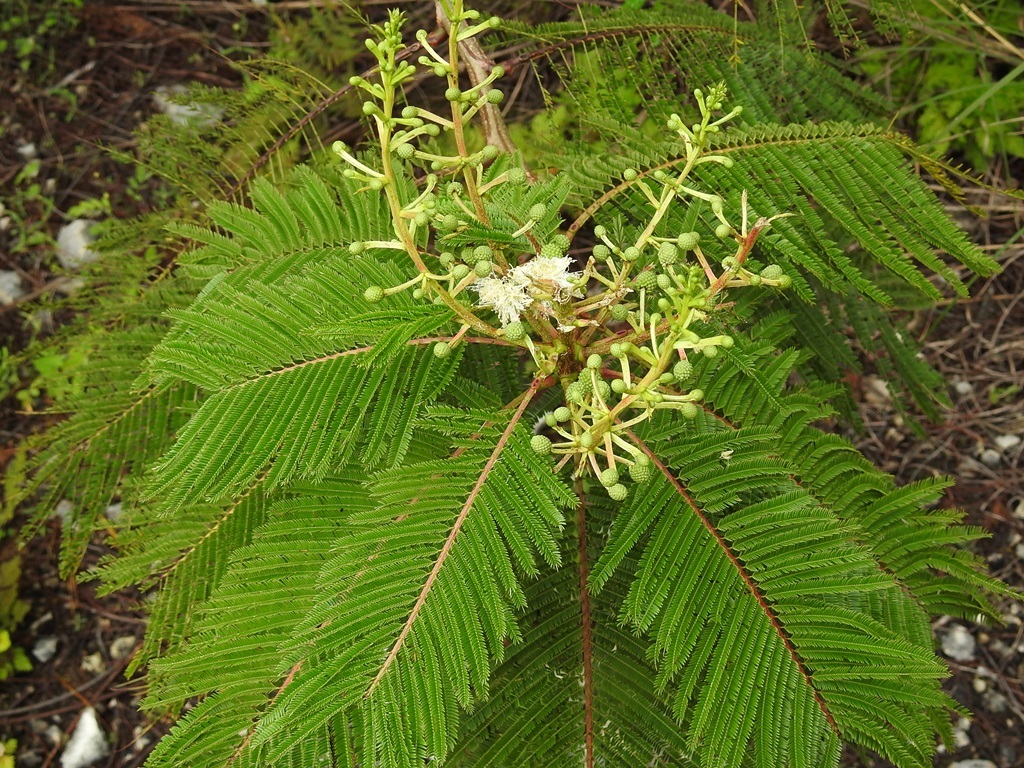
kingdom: Plantae
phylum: Tracheophyta
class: Magnoliopsida
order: Fabales
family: Fabaceae
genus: Lysiloma
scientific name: Lysiloma auritum
